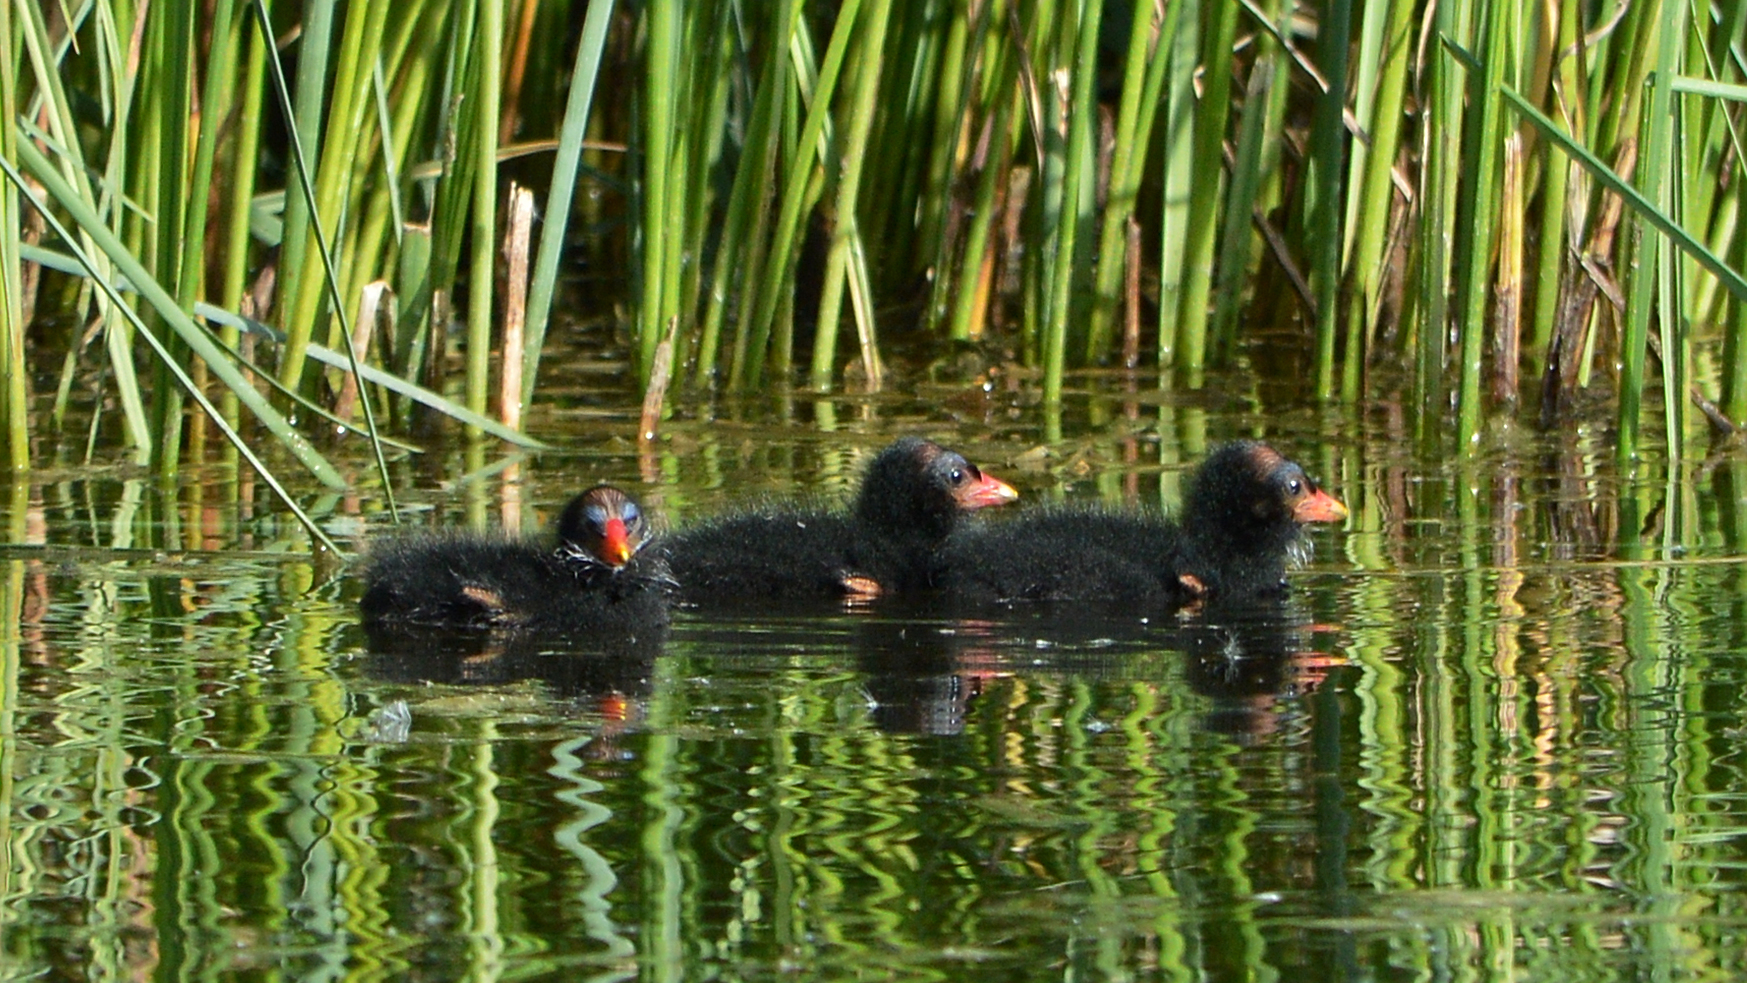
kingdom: Animalia
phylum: Chordata
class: Aves
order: Gruiformes
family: Rallidae
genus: Gallinula
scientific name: Gallinula chloropus
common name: Common moorhen
